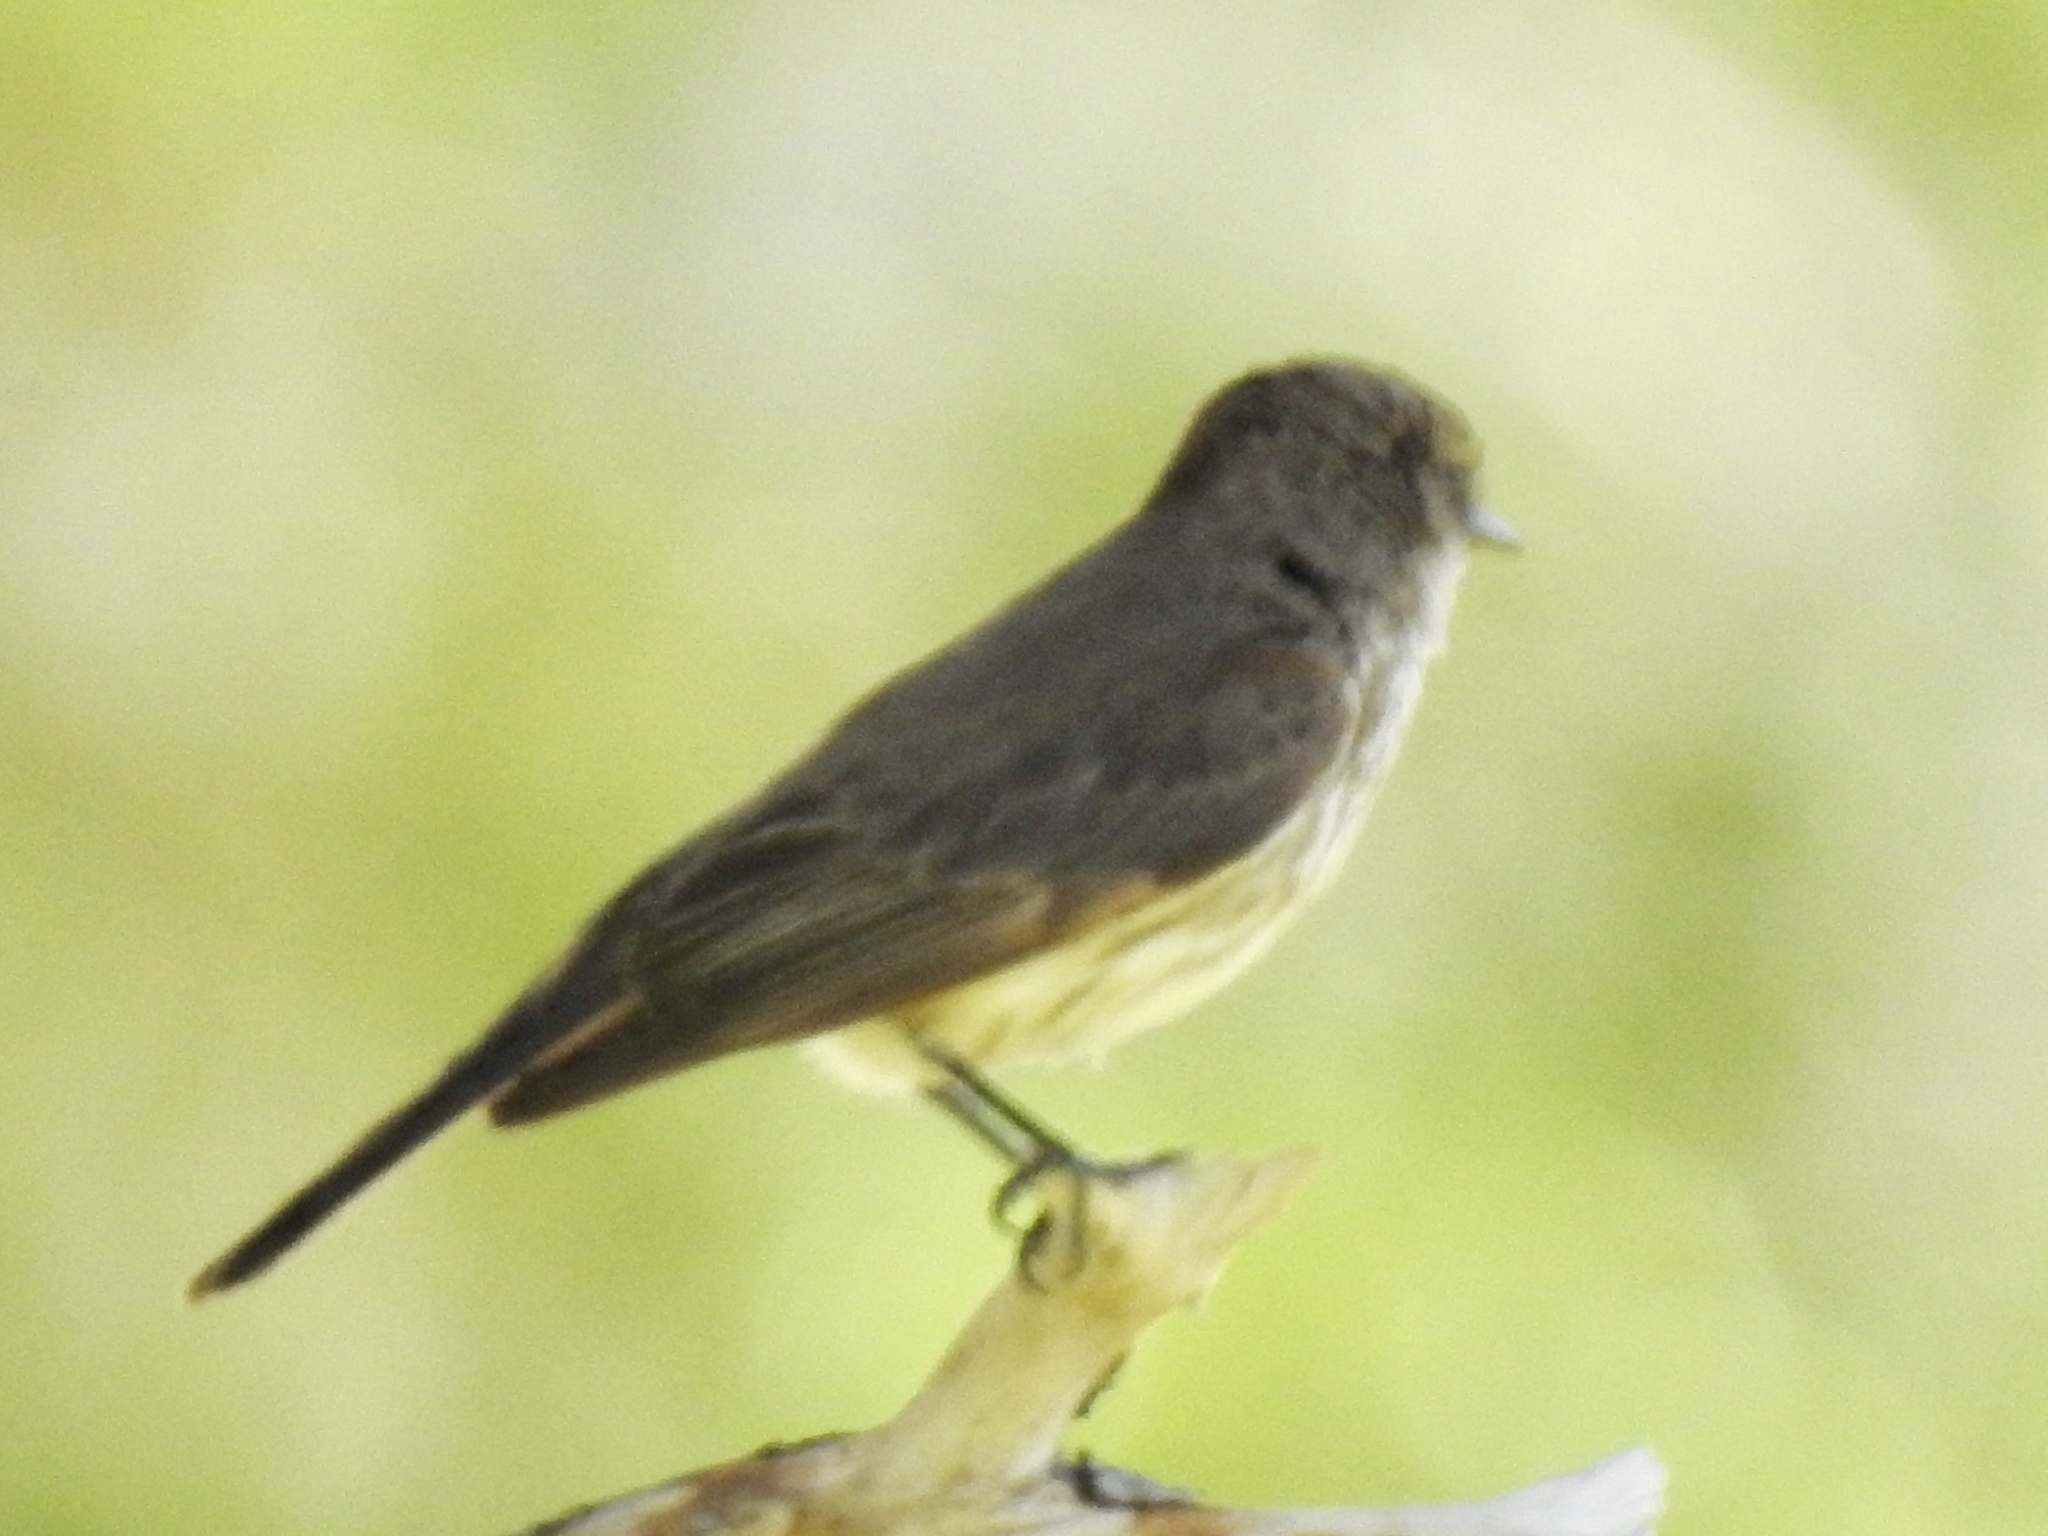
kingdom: Animalia
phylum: Chordata
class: Aves
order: Passeriformes
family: Tyrannidae
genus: Pyrocephalus
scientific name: Pyrocephalus rubinus
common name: Vermilion flycatcher
